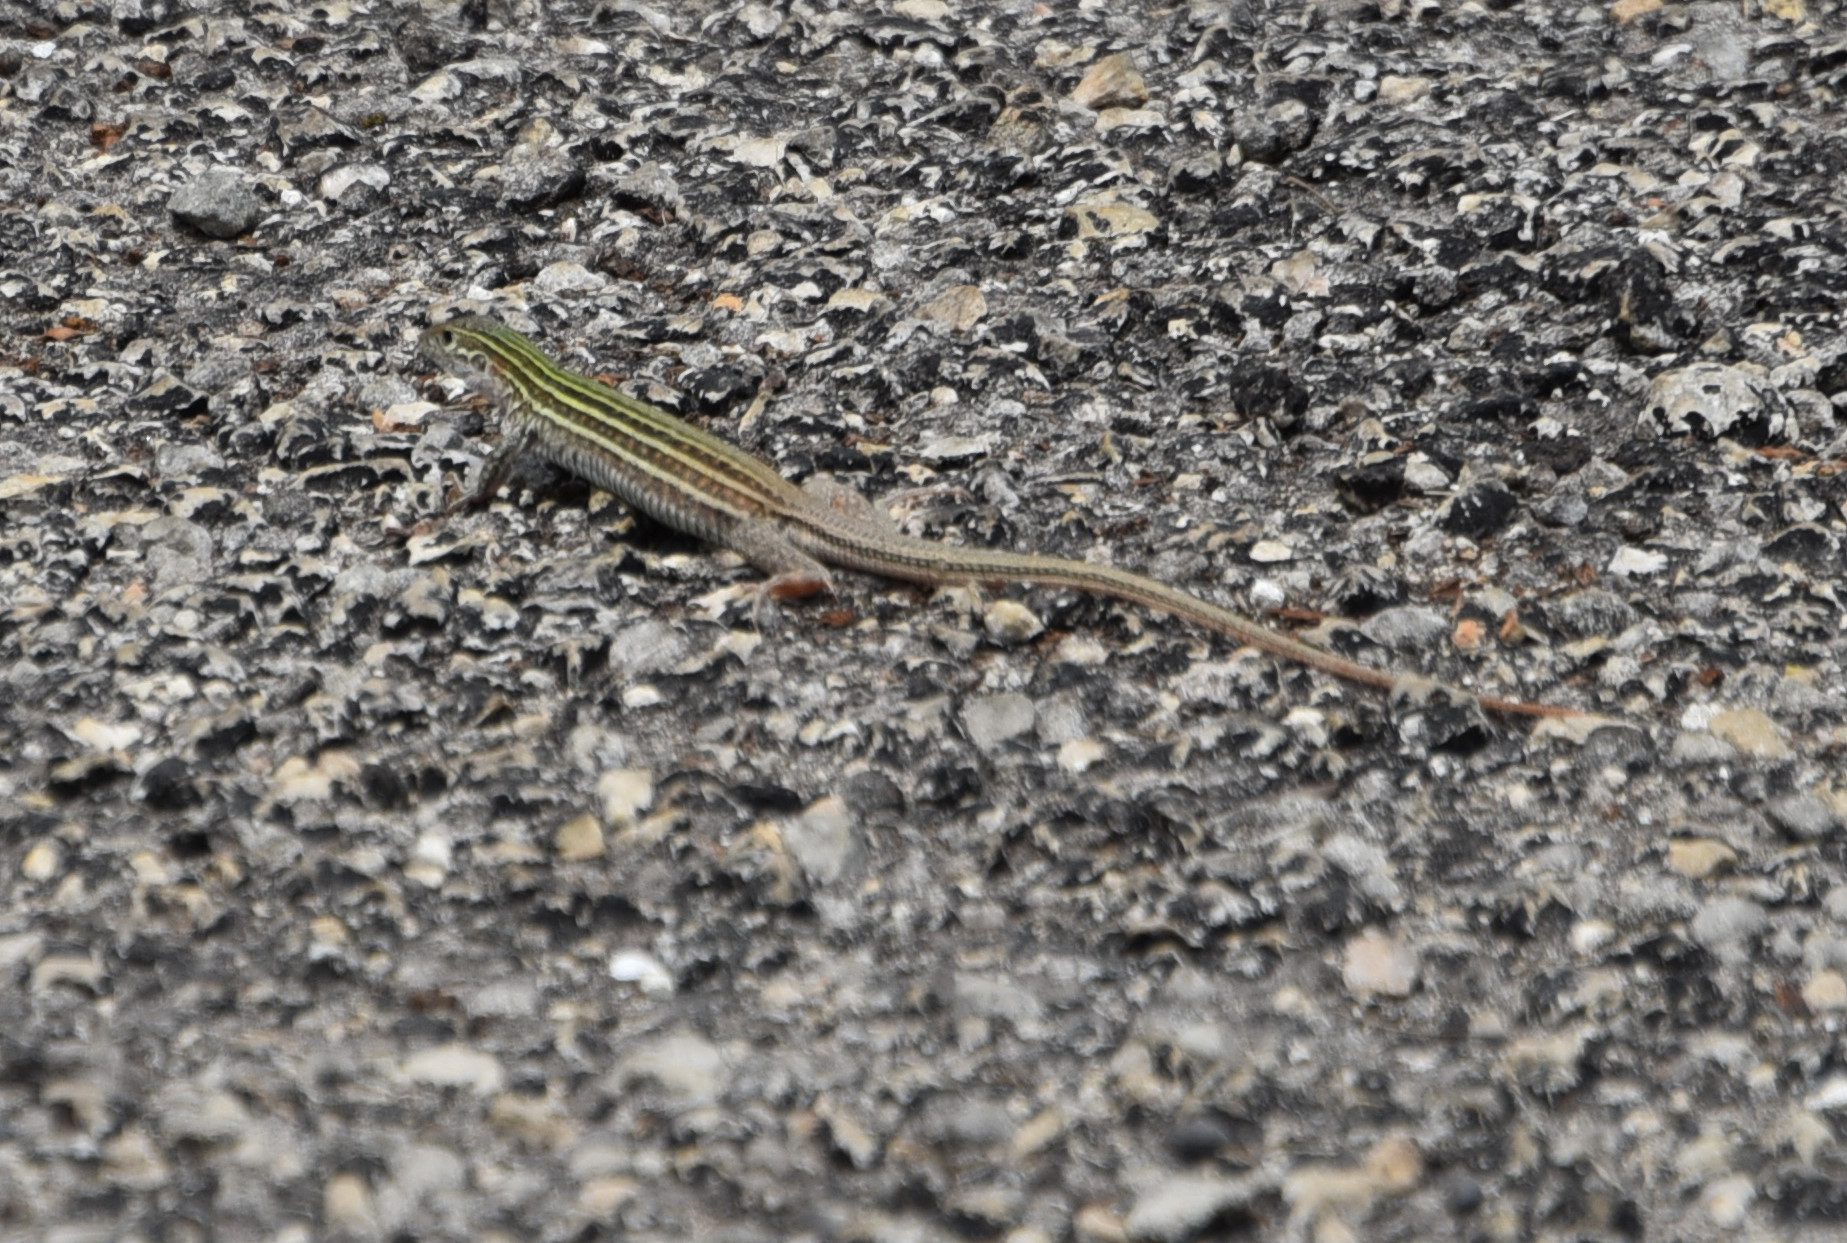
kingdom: Animalia
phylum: Chordata
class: Squamata
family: Teiidae
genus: Aspidoscelis
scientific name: Aspidoscelis gularis
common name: Eastern spotted whiptail
